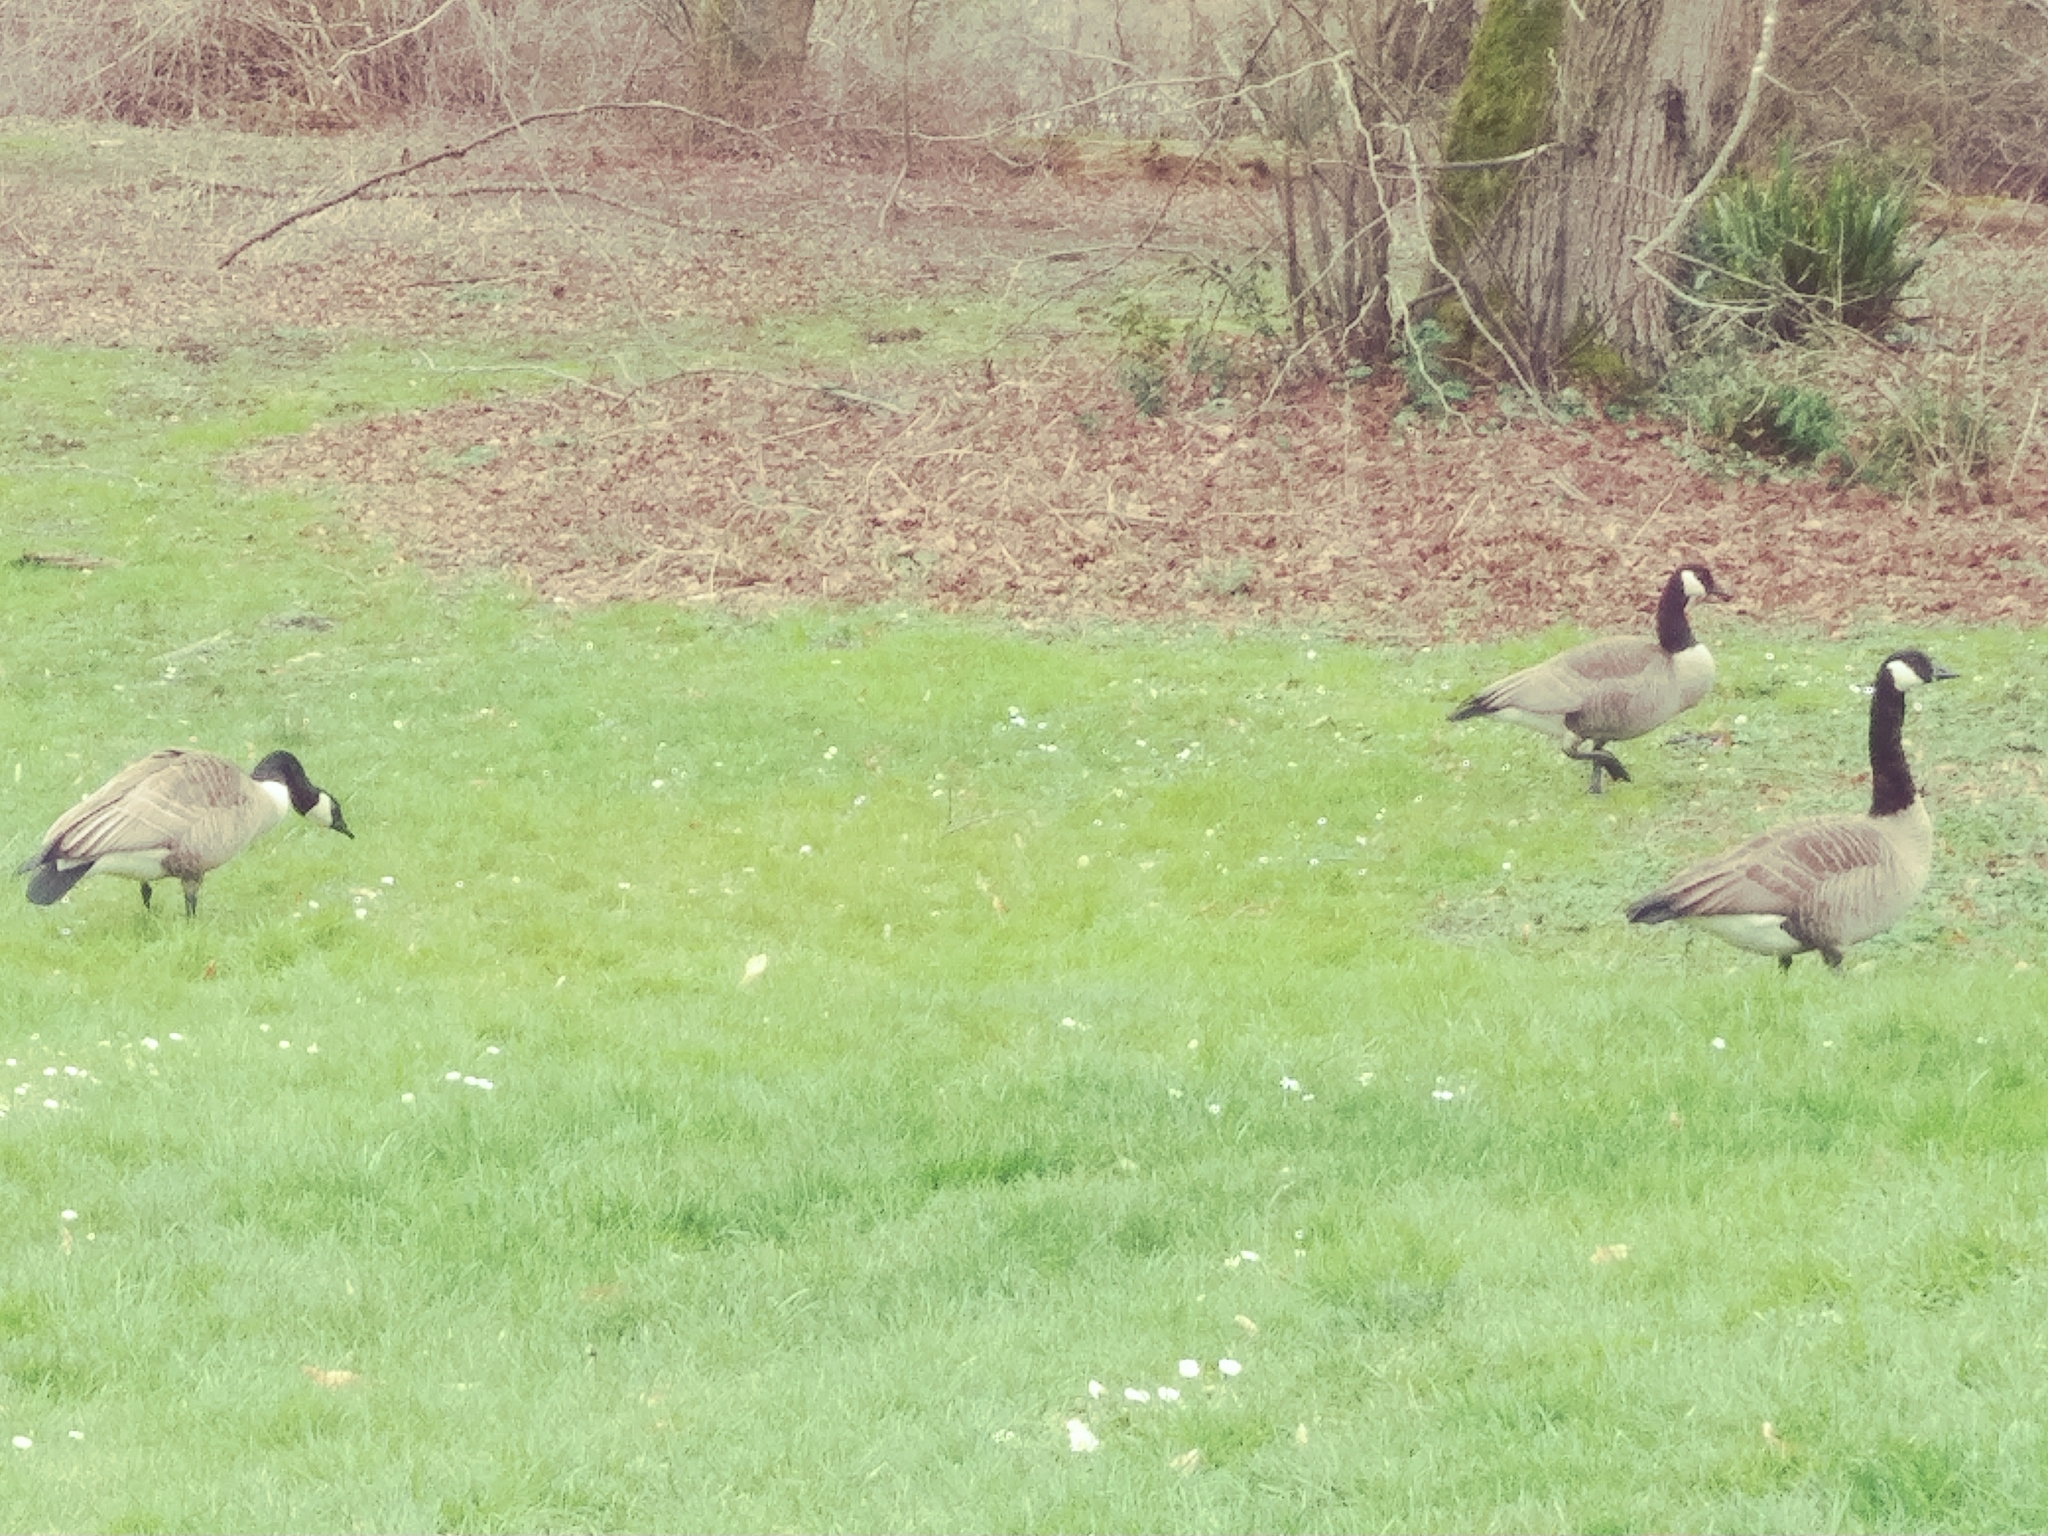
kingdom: Animalia
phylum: Chordata
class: Aves
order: Anseriformes
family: Anatidae
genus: Branta
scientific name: Branta canadensis
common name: Canada goose
